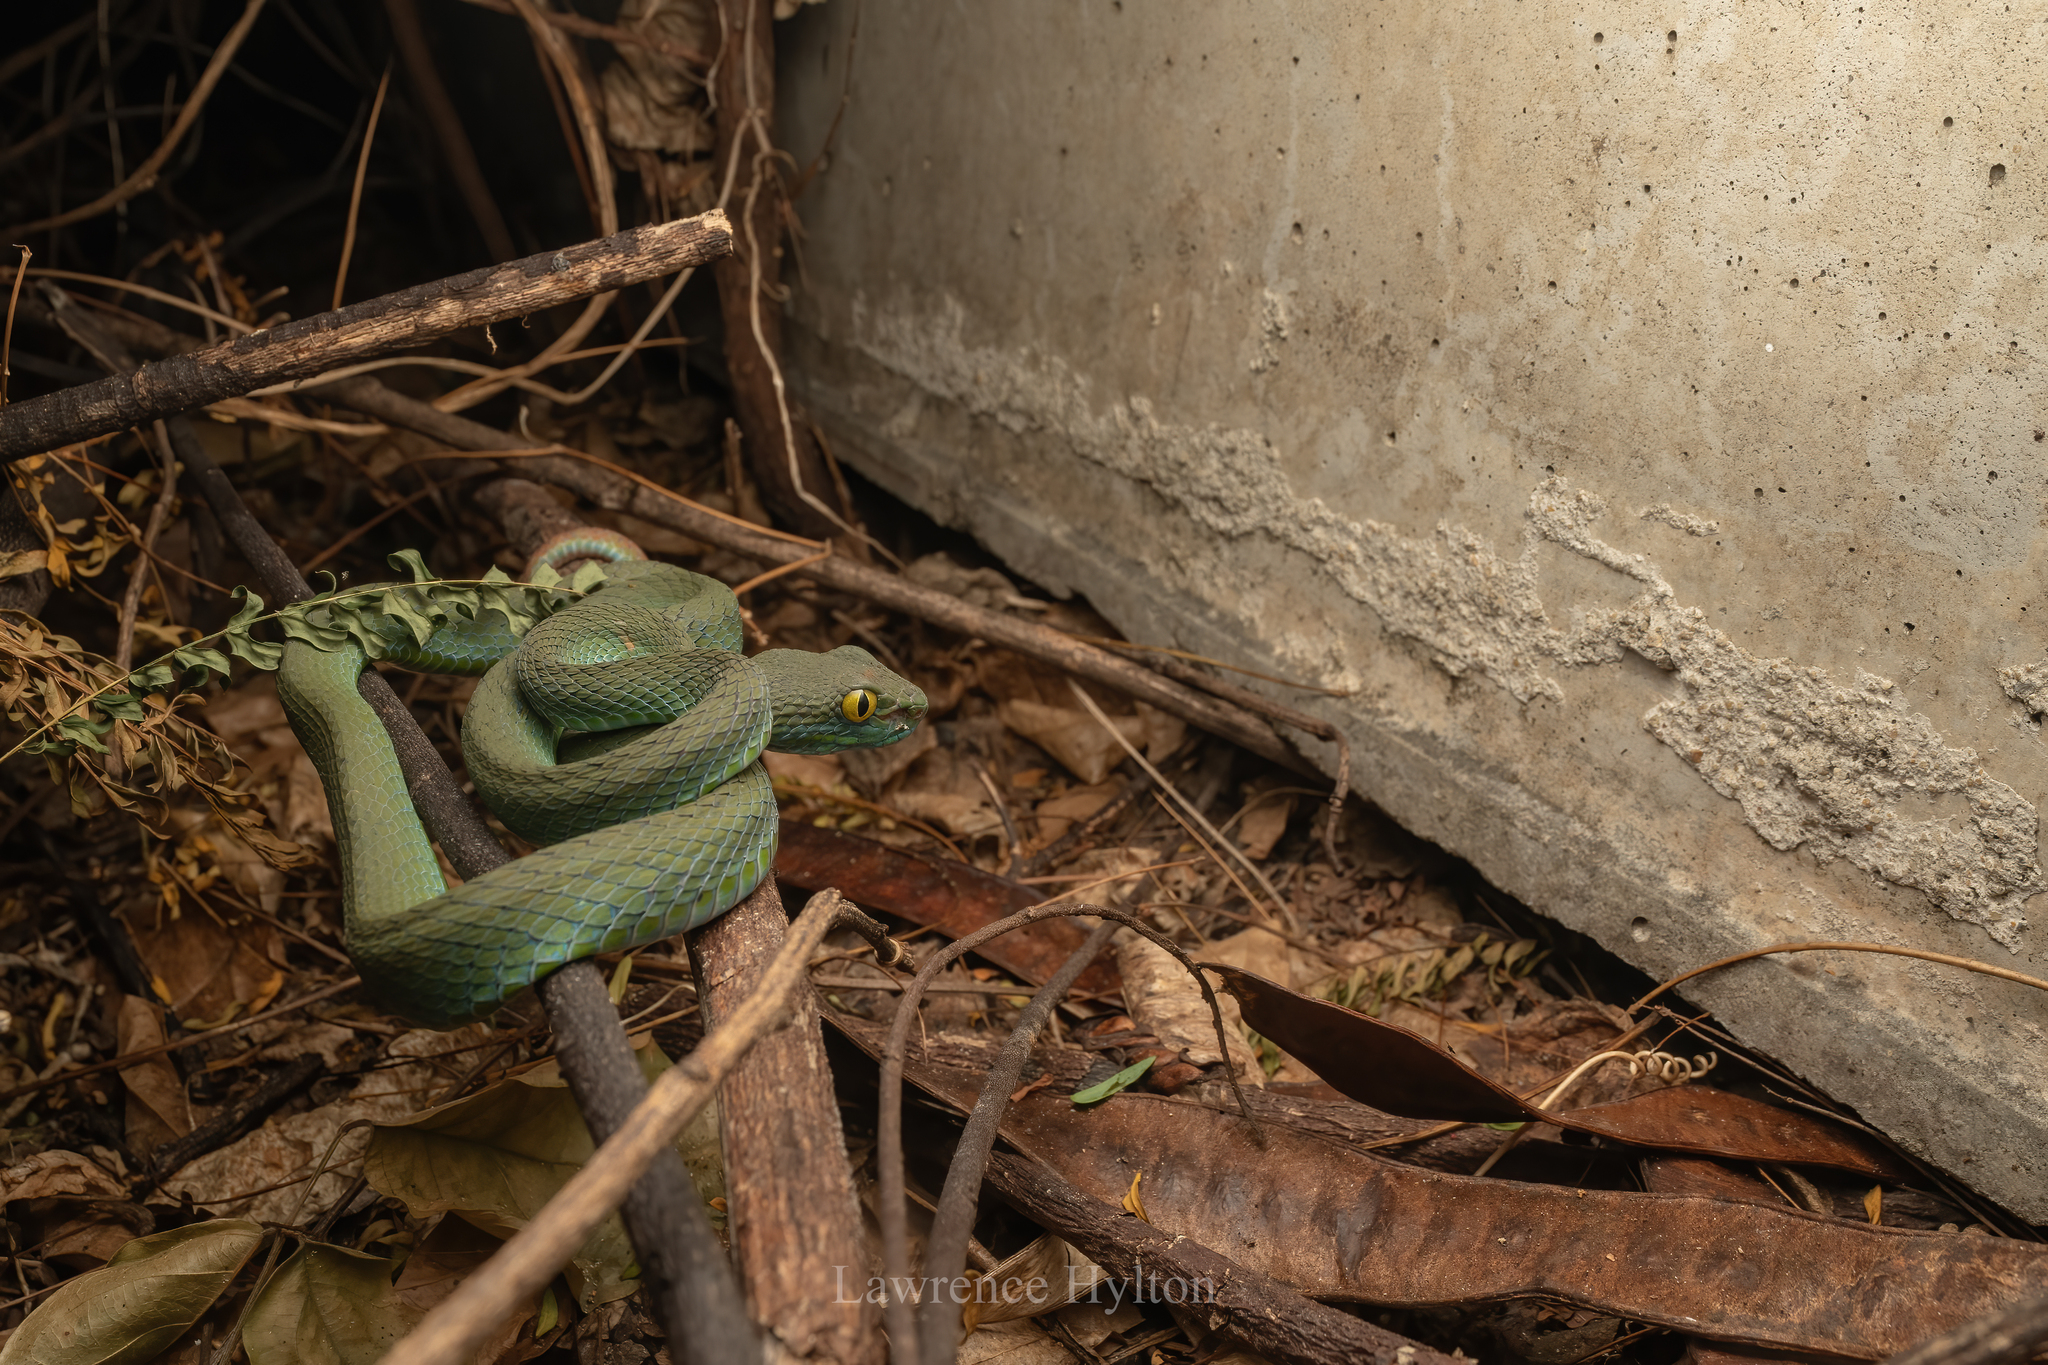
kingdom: Animalia
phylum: Chordata
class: Squamata
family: Viperidae
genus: Trimeresurus
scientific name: Trimeresurus macrops
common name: Kramer's pit viper
